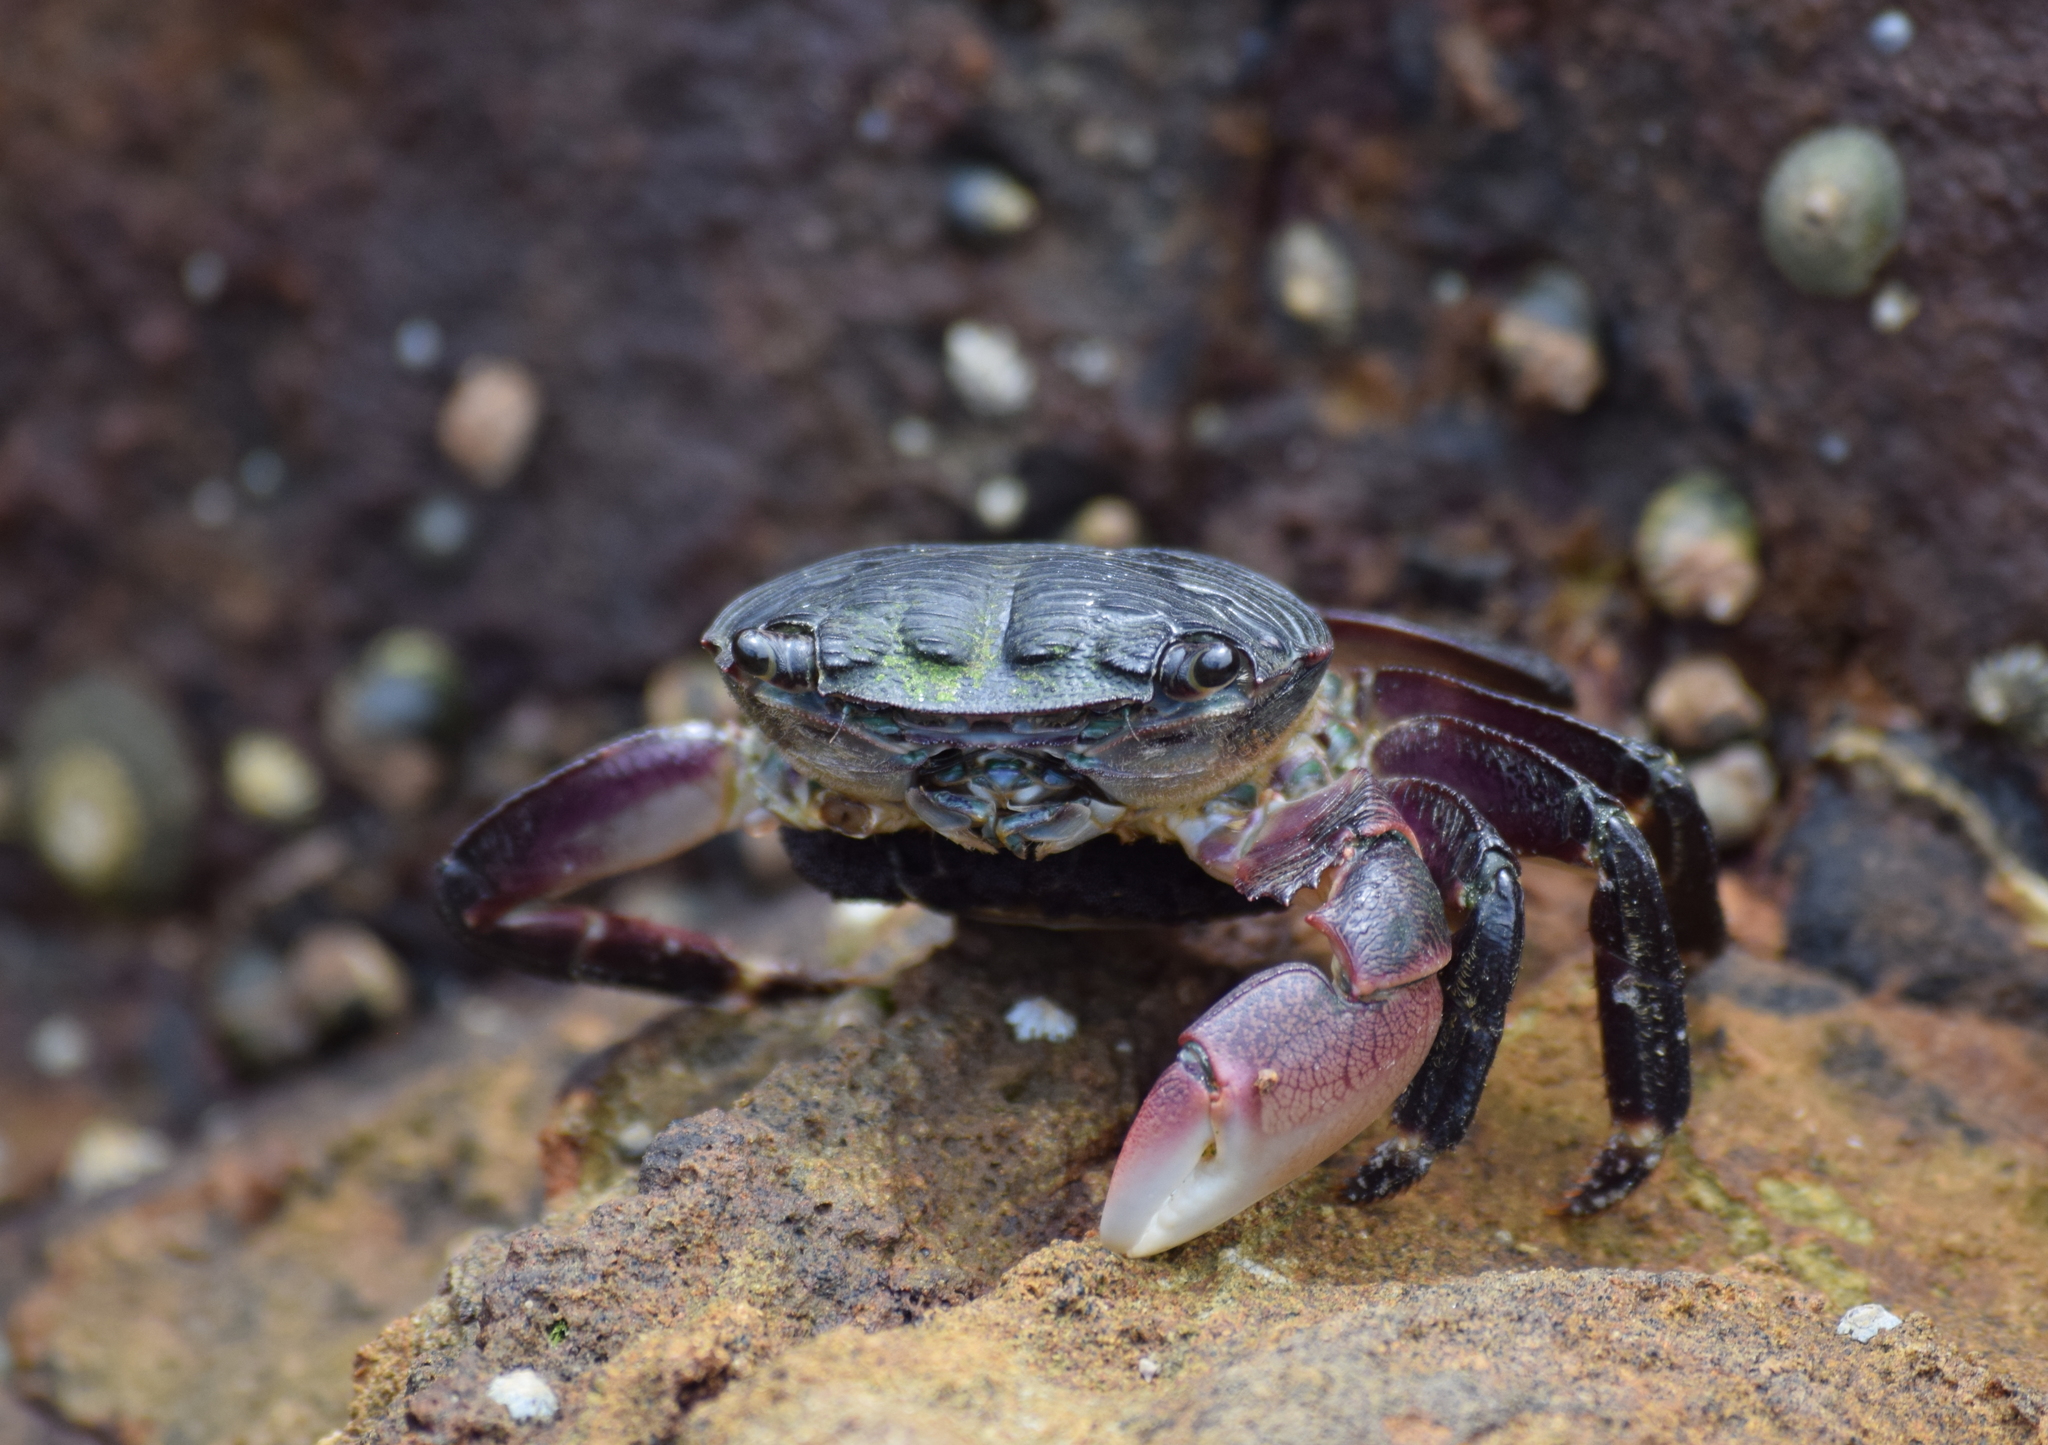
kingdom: Animalia
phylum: Arthropoda
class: Malacostraca
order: Decapoda
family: Grapsidae
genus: Pachygrapsus
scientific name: Pachygrapsus crassipes
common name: Striped shore crab
